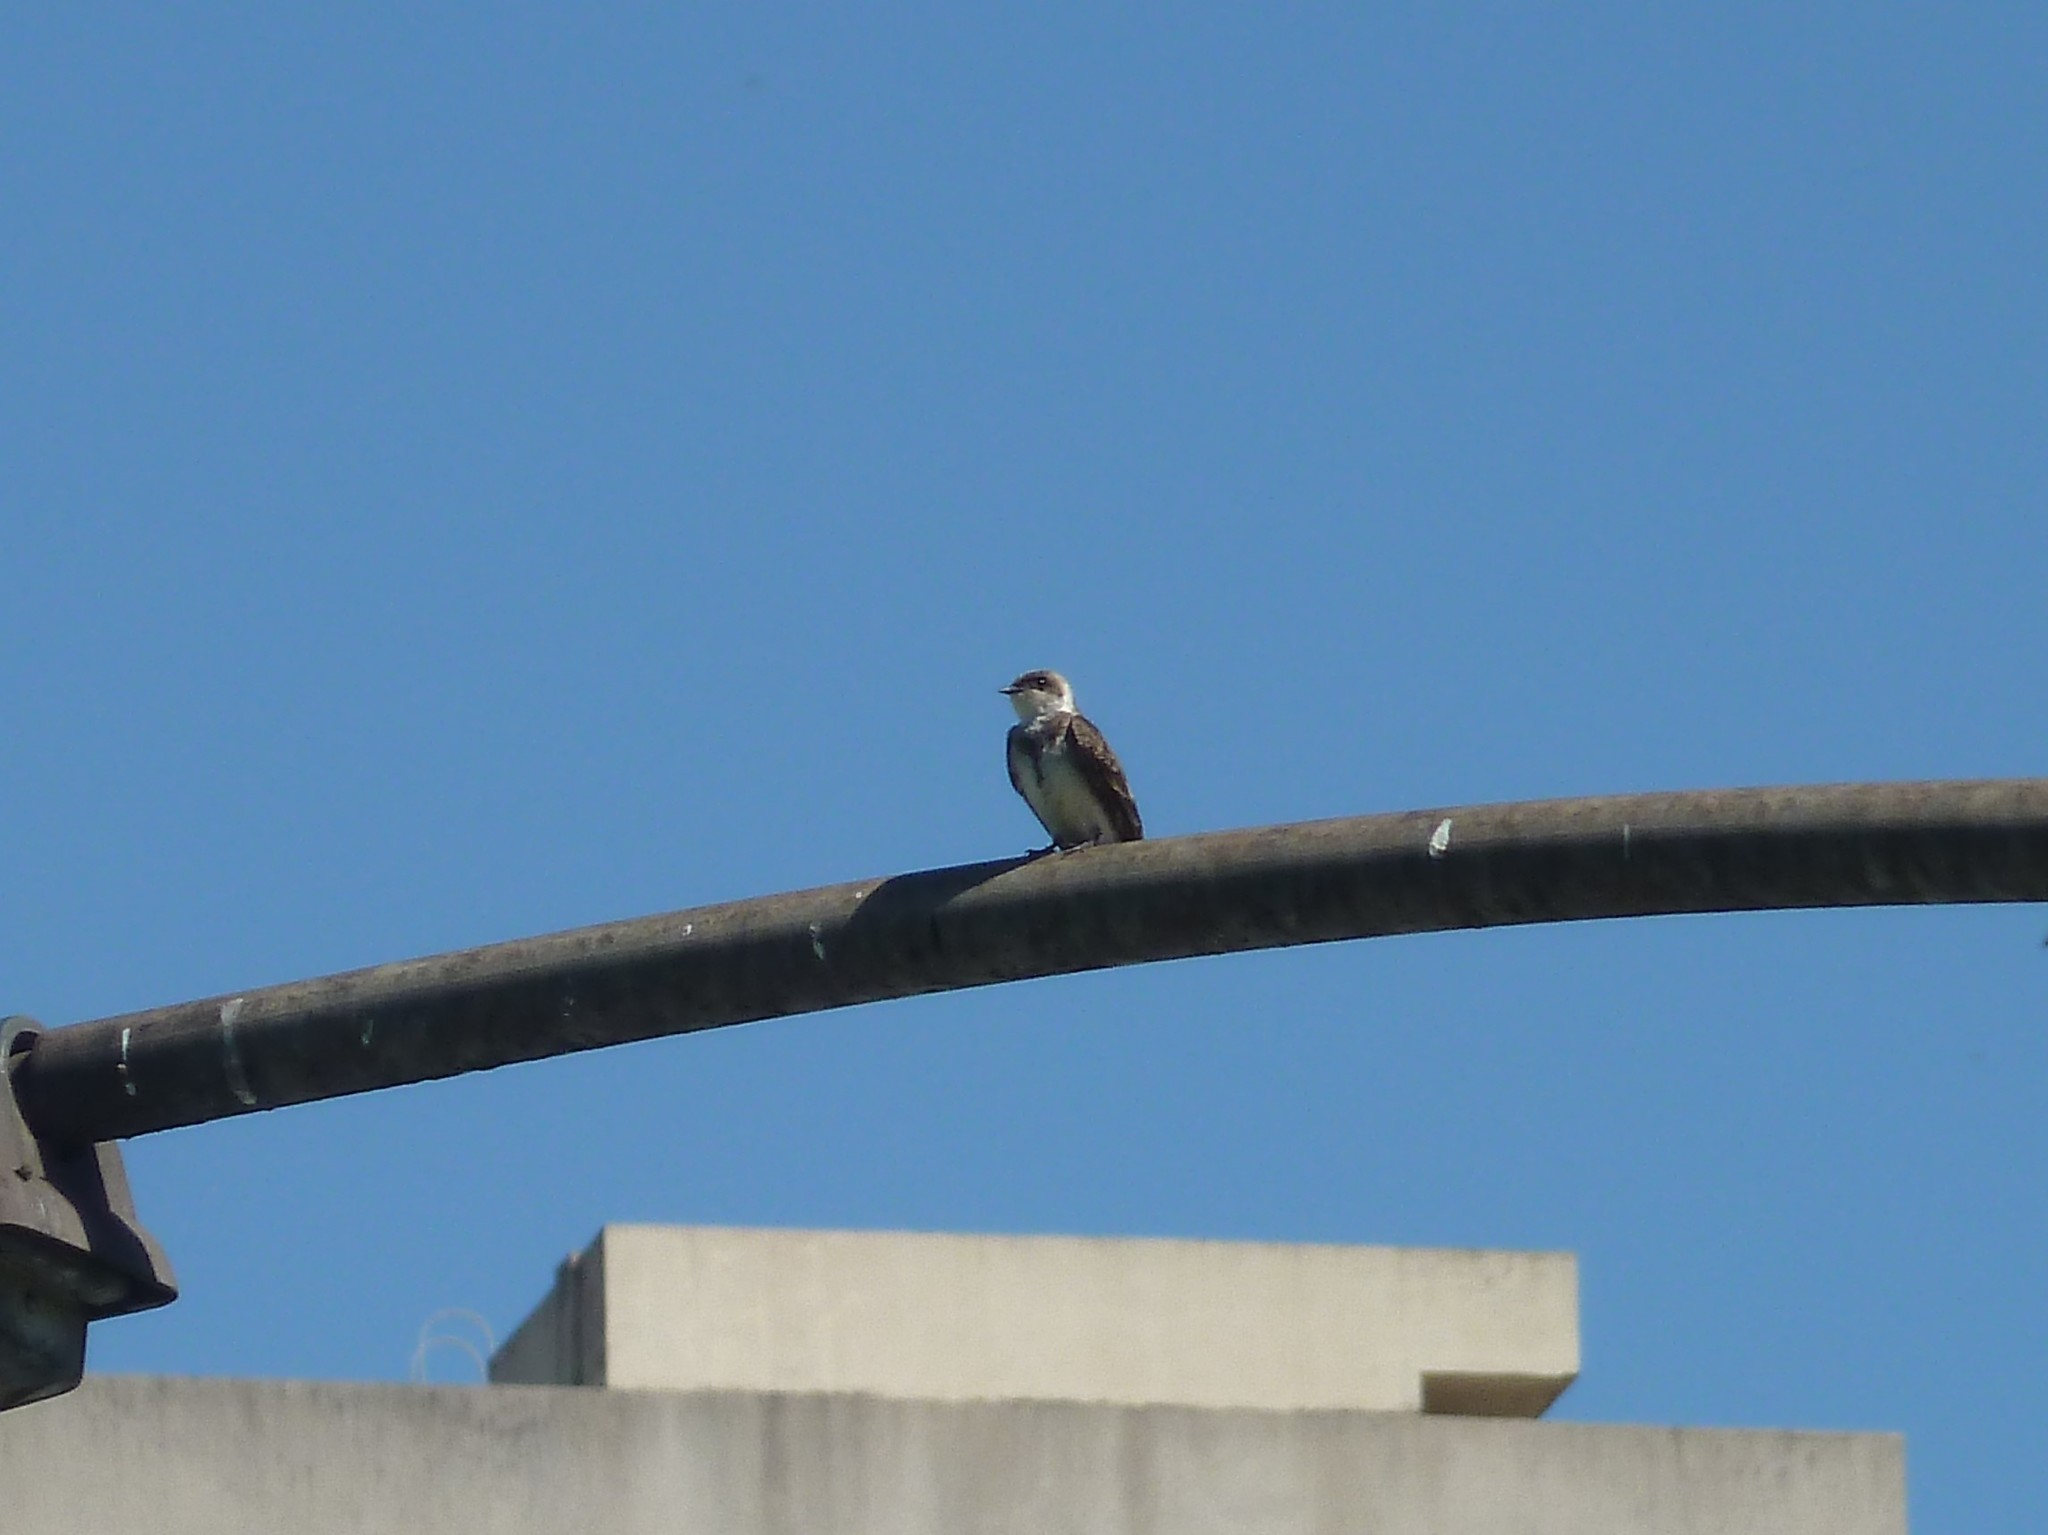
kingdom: Animalia
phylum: Chordata
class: Aves
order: Passeriformes
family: Hirundinidae
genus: Progne
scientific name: Progne tapera
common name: Brown-chested martin
